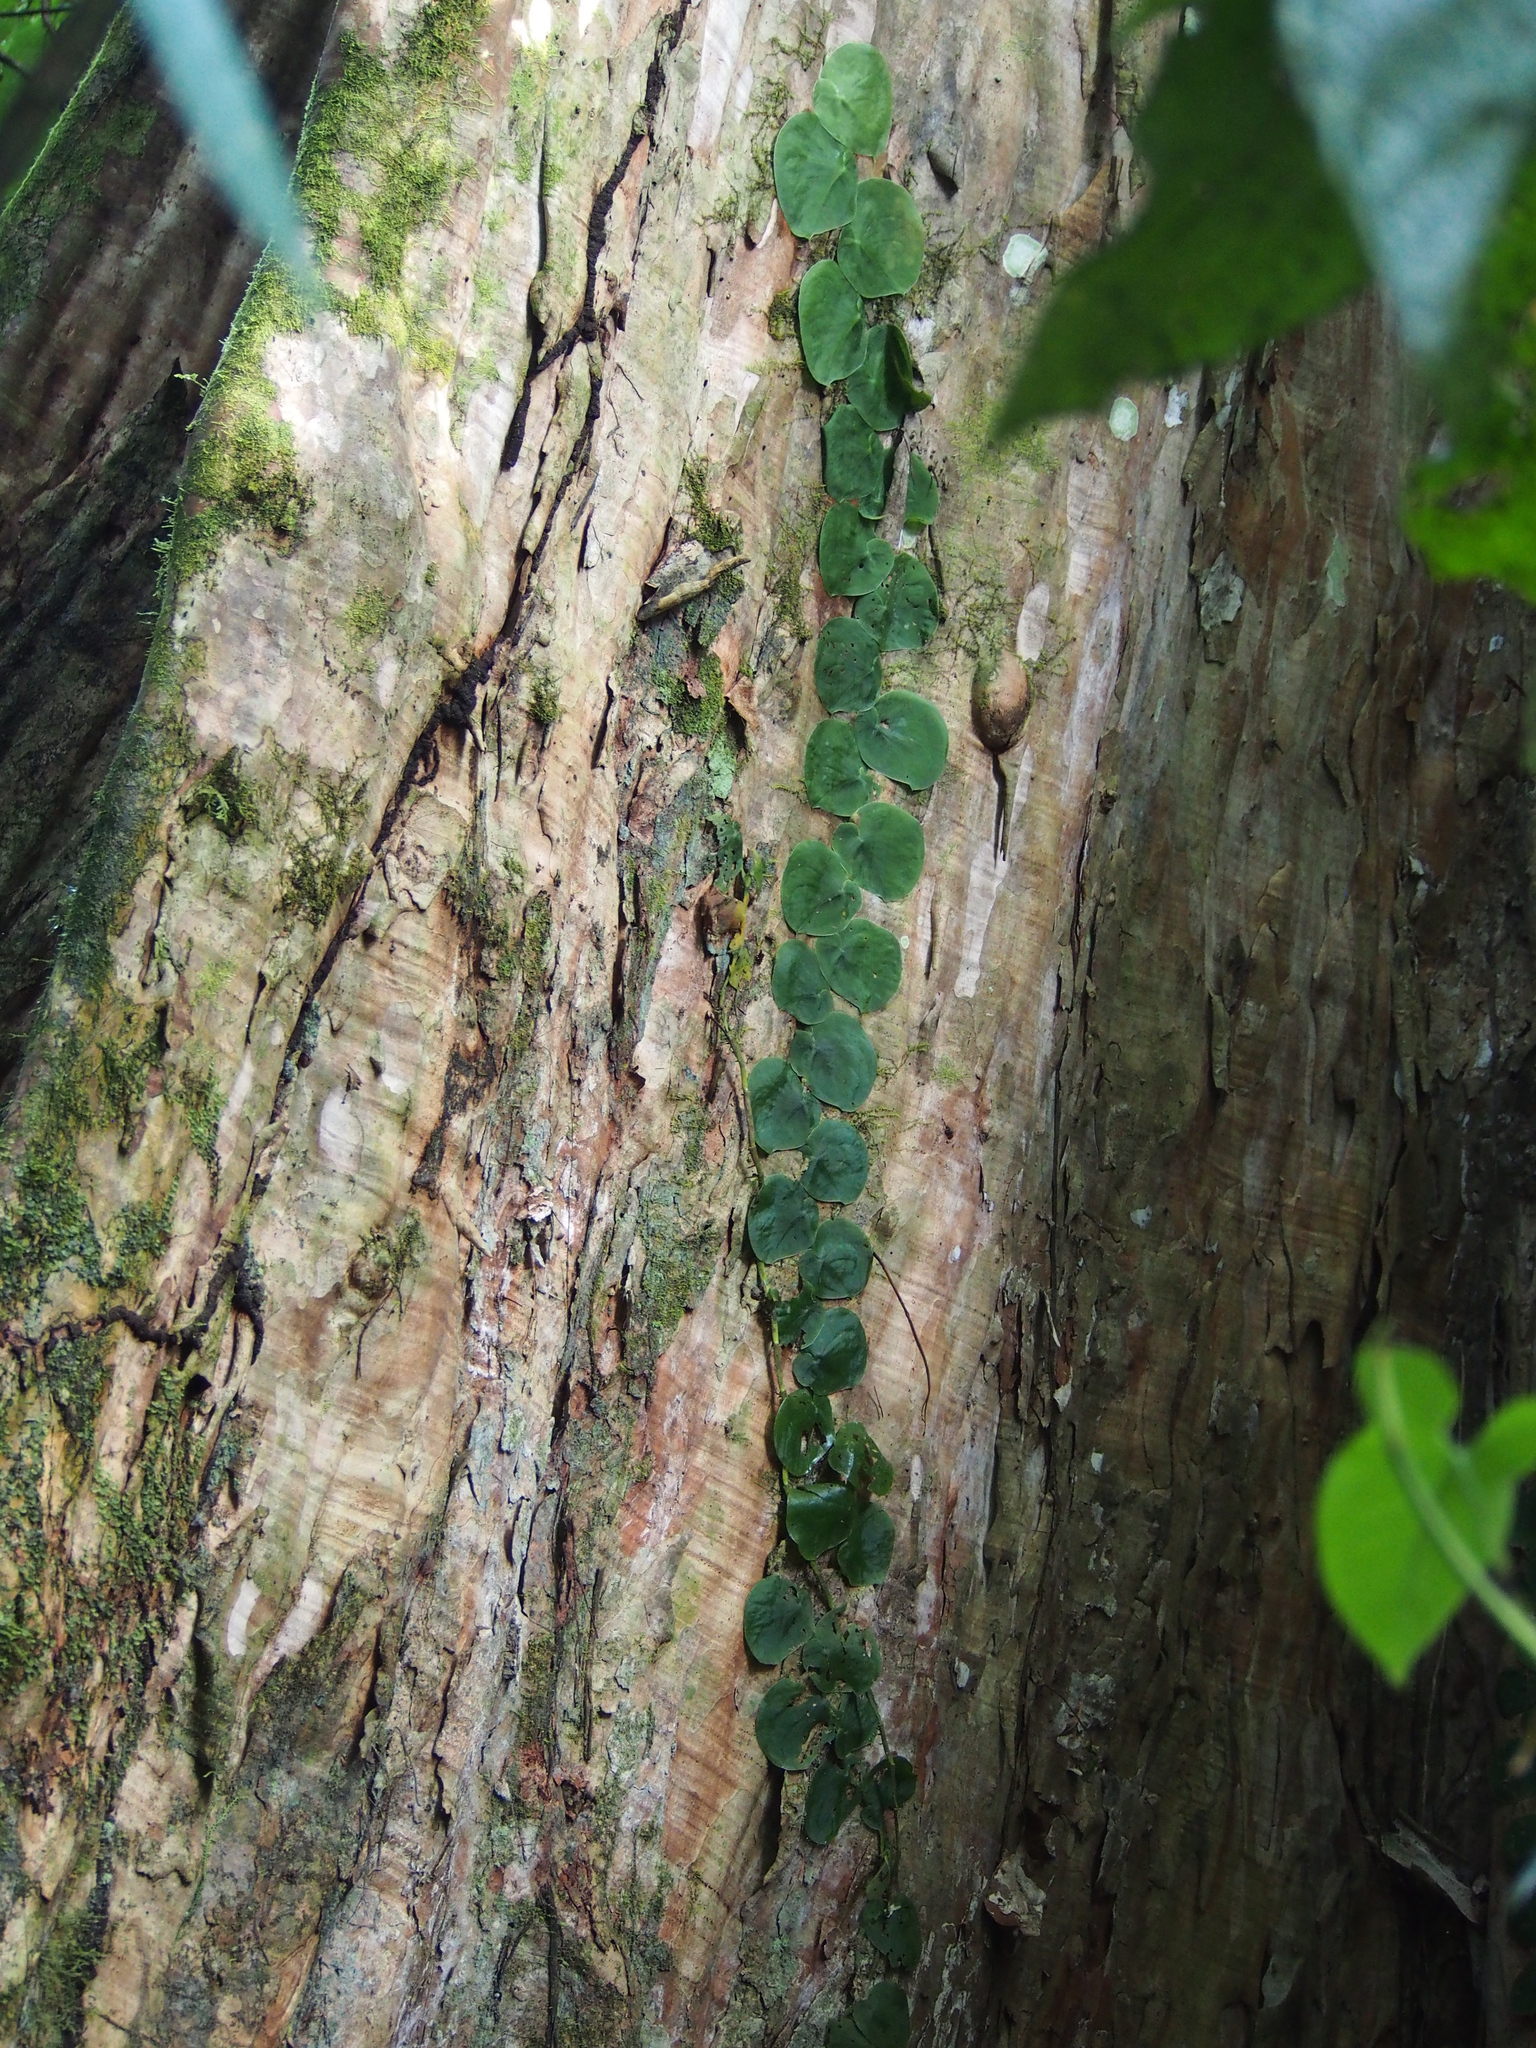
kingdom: Plantae
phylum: Tracheophyta
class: Liliopsida
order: Alismatales
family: Araceae
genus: Monstera
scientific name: Monstera tenuis
